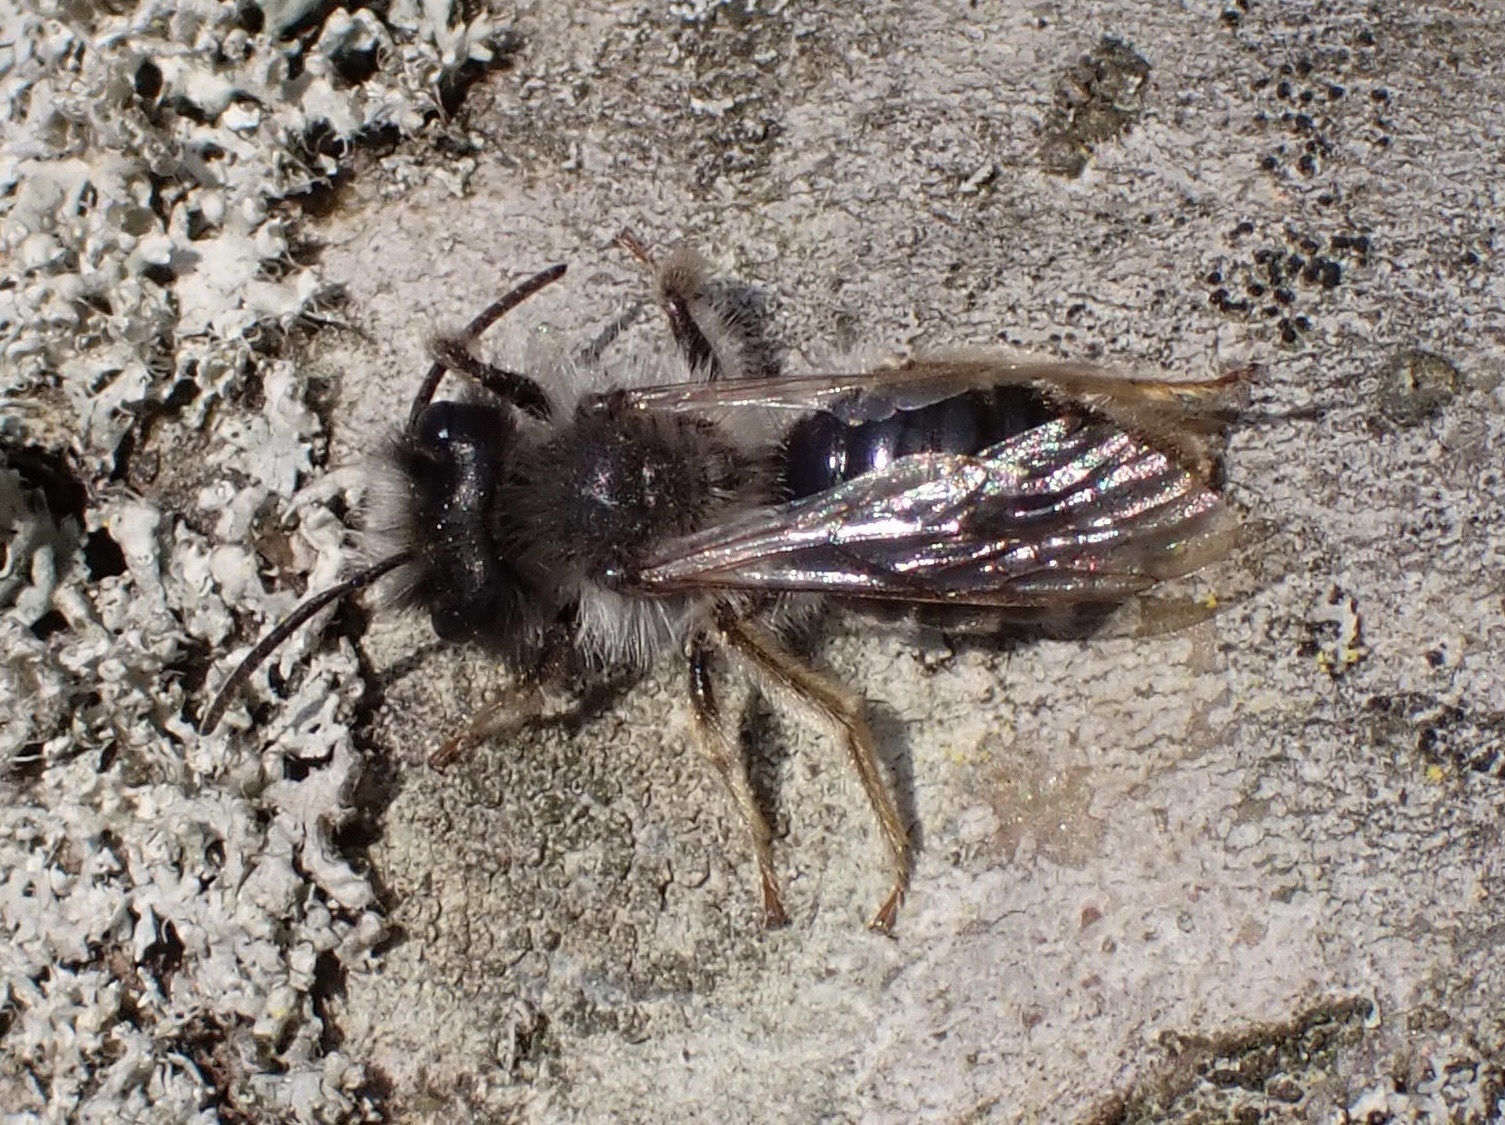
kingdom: Animalia
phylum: Arthropoda
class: Insecta
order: Hymenoptera
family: Andrenidae
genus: Andrena
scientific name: Andrena vaga
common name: Grey-backed mining bee
